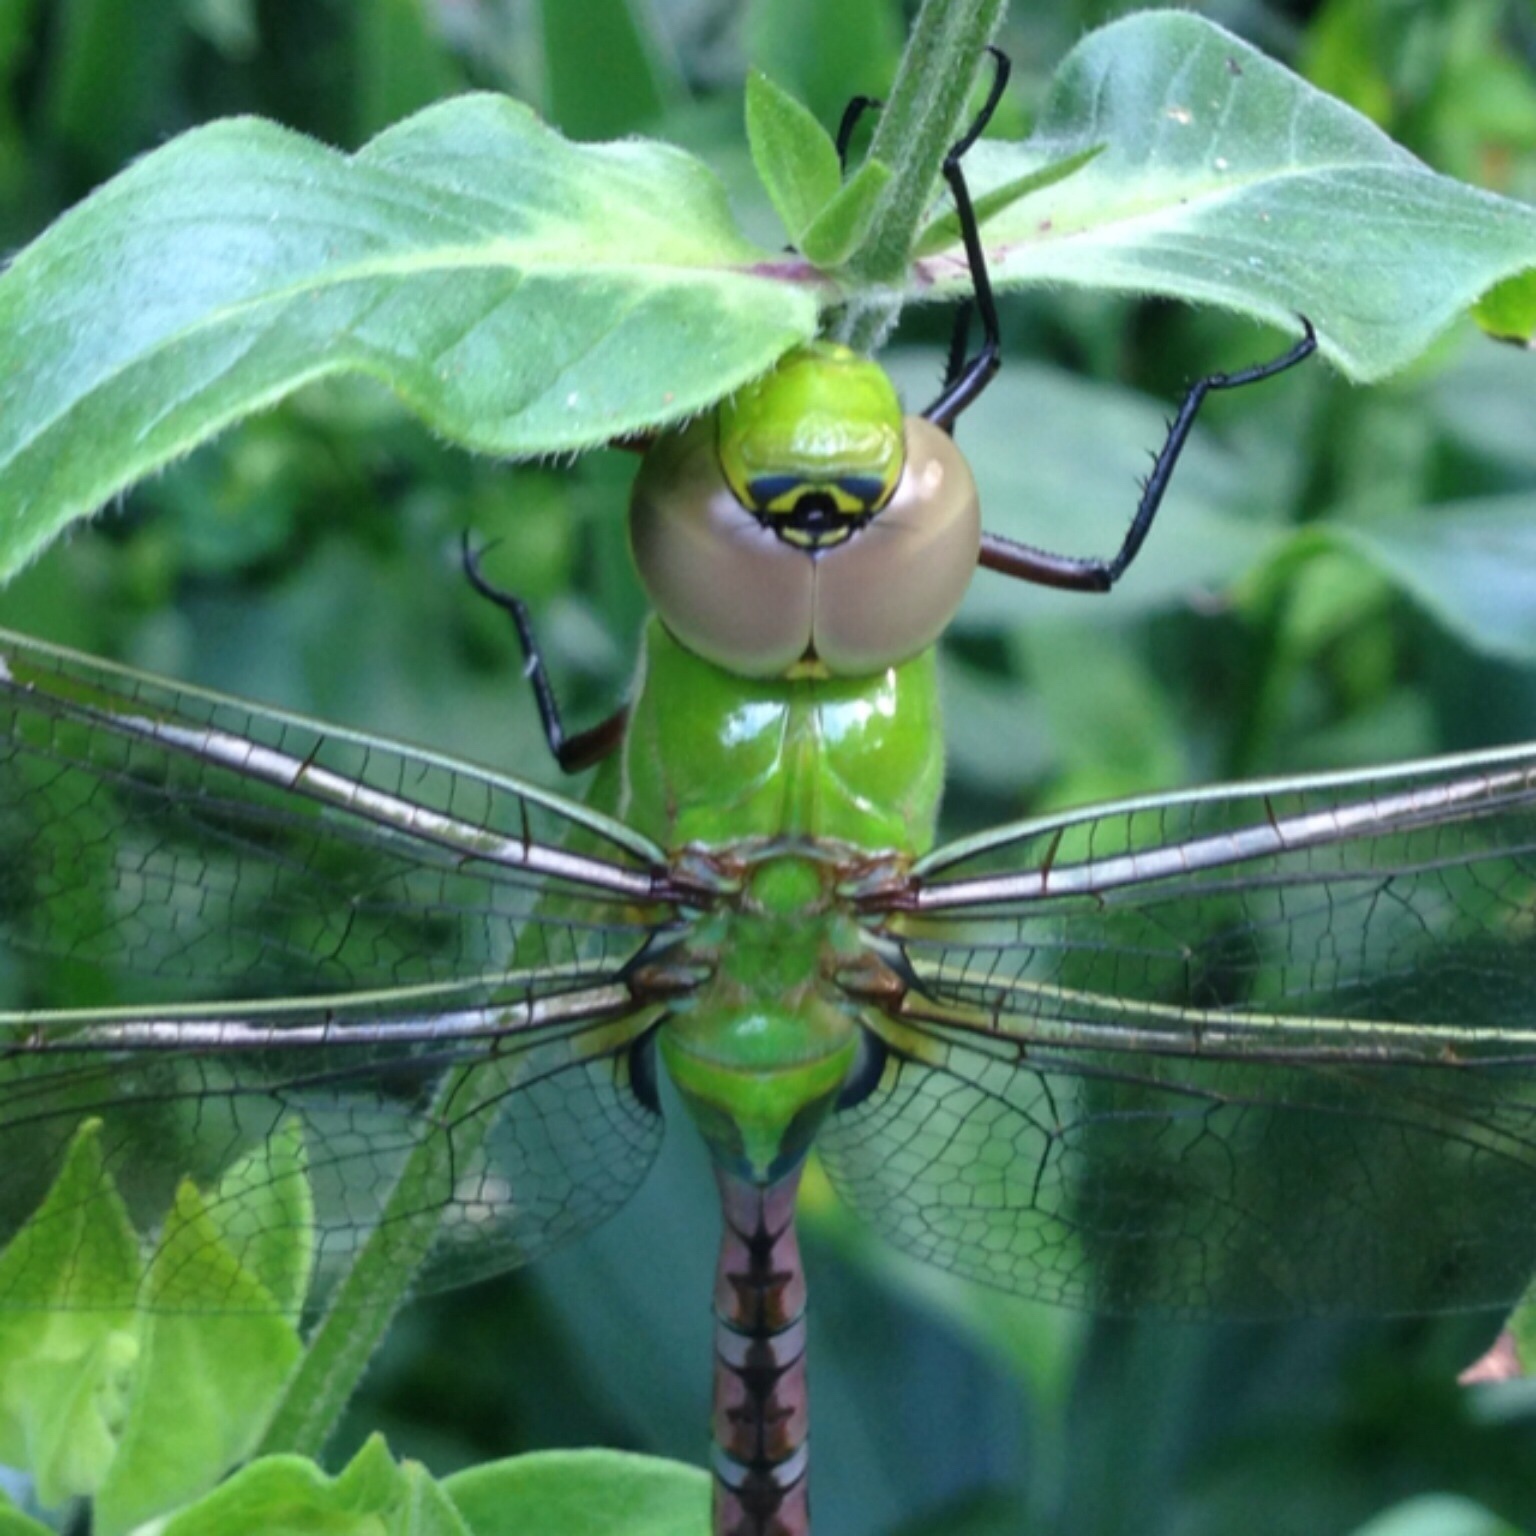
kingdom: Animalia
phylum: Arthropoda
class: Insecta
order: Odonata
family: Aeshnidae
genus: Anax
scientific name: Anax junius
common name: Common green darner
